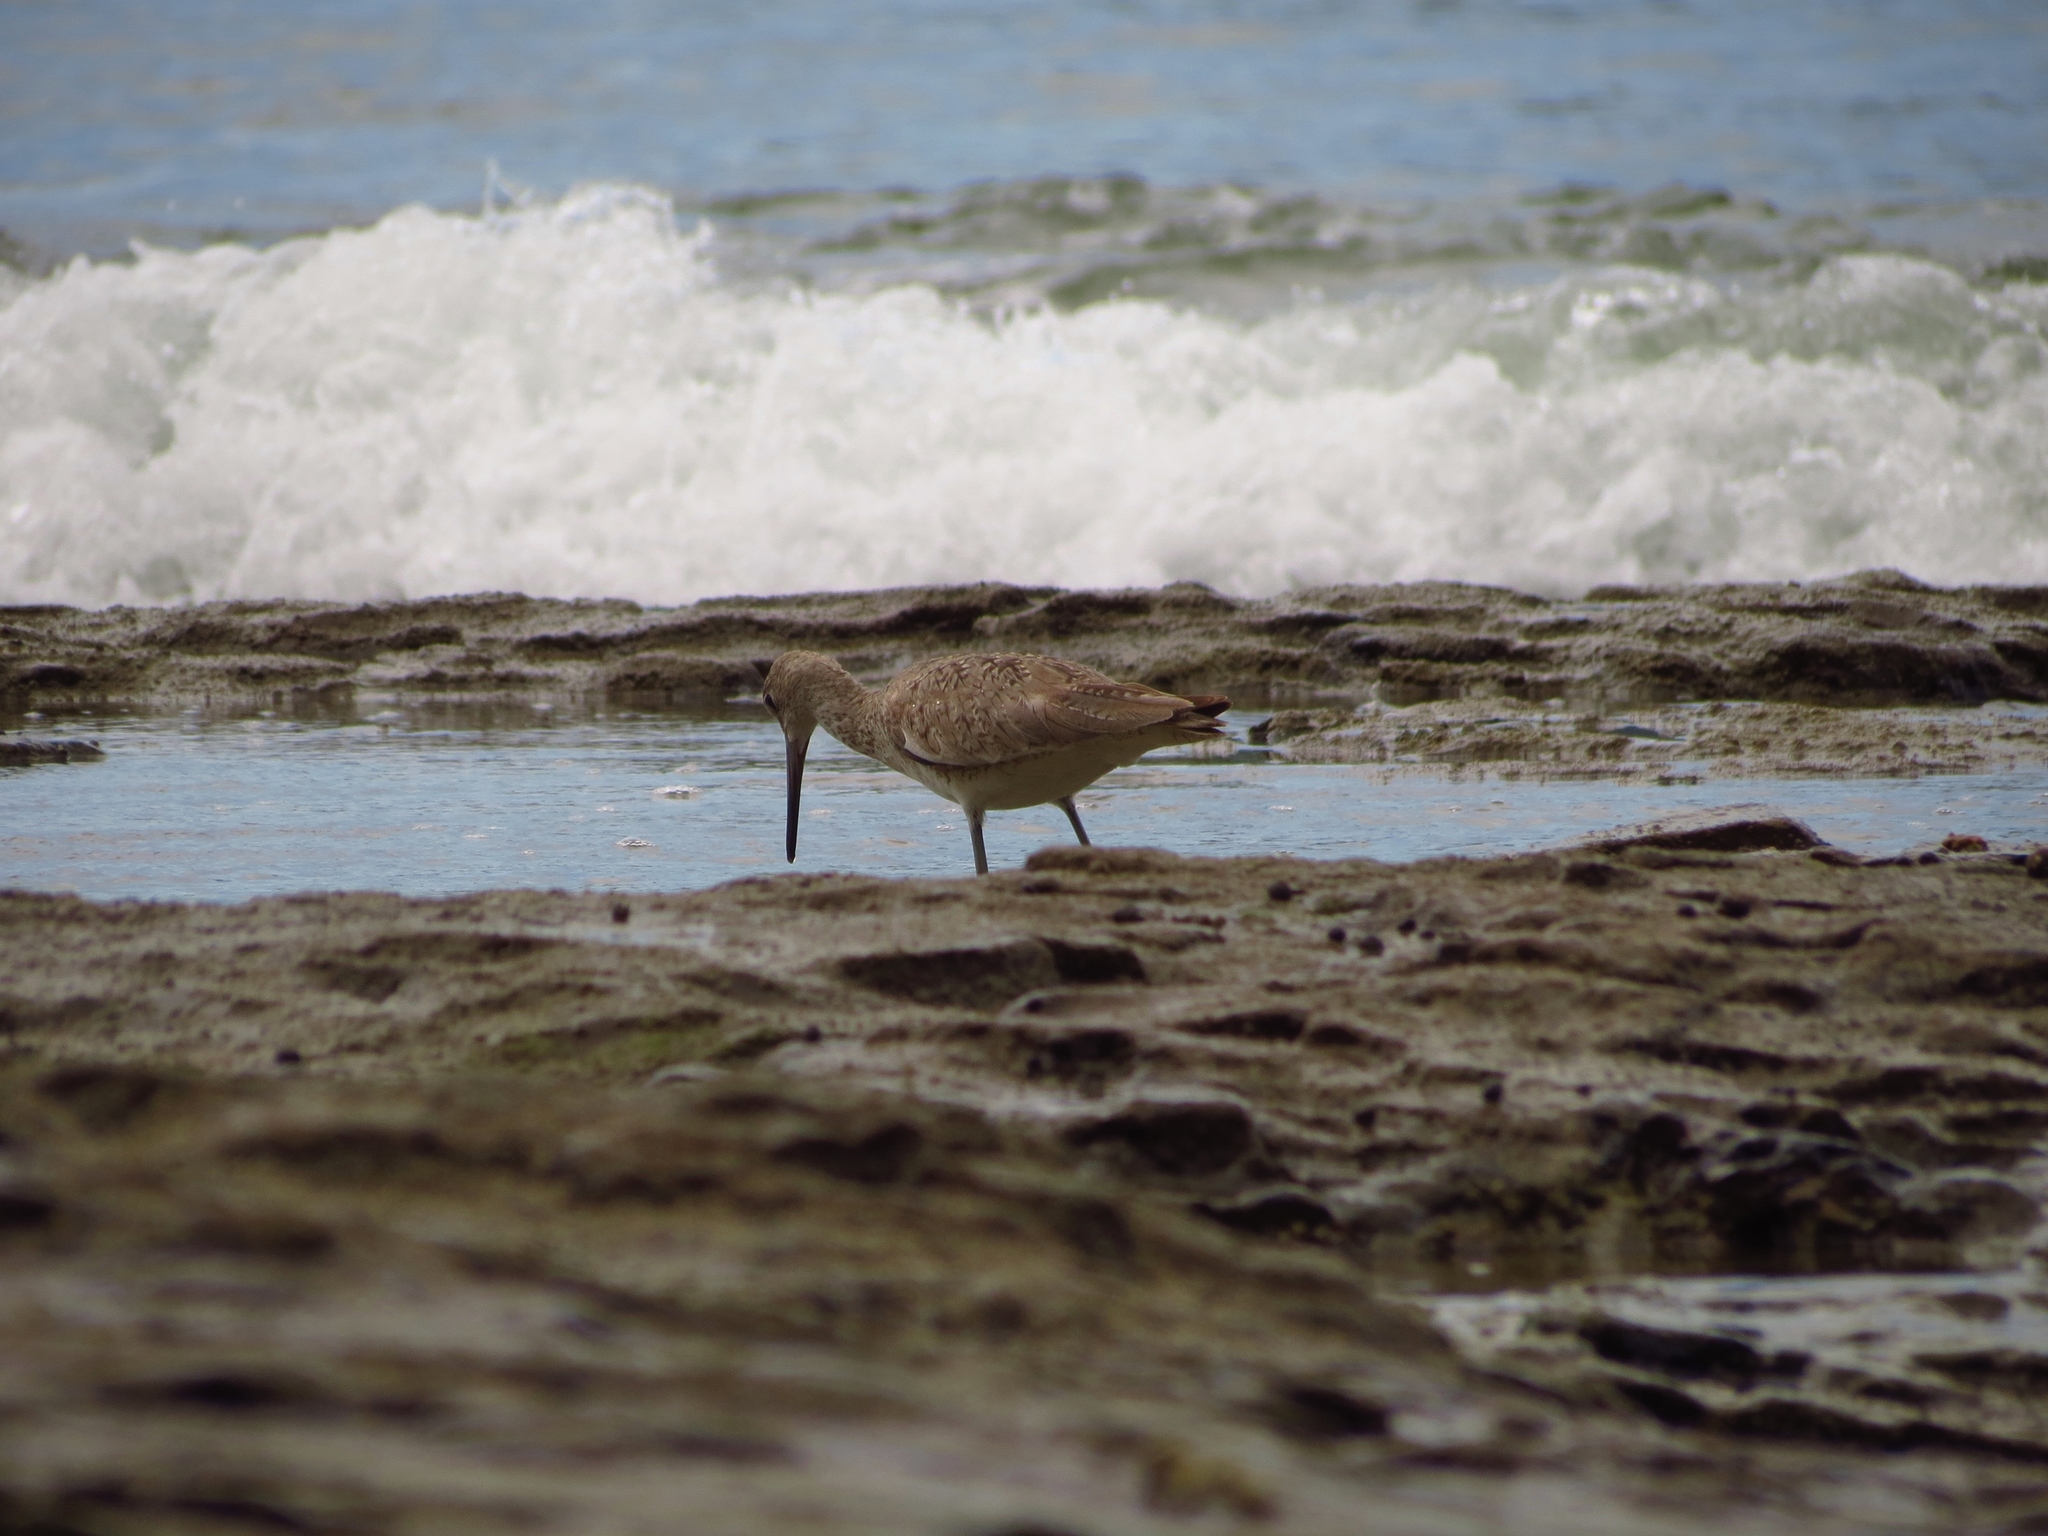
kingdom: Animalia
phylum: Chordata
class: Aves
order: Charadriiformes
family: Scolopacidae
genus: Tringa
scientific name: Tringa semipalmata
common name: Willet
